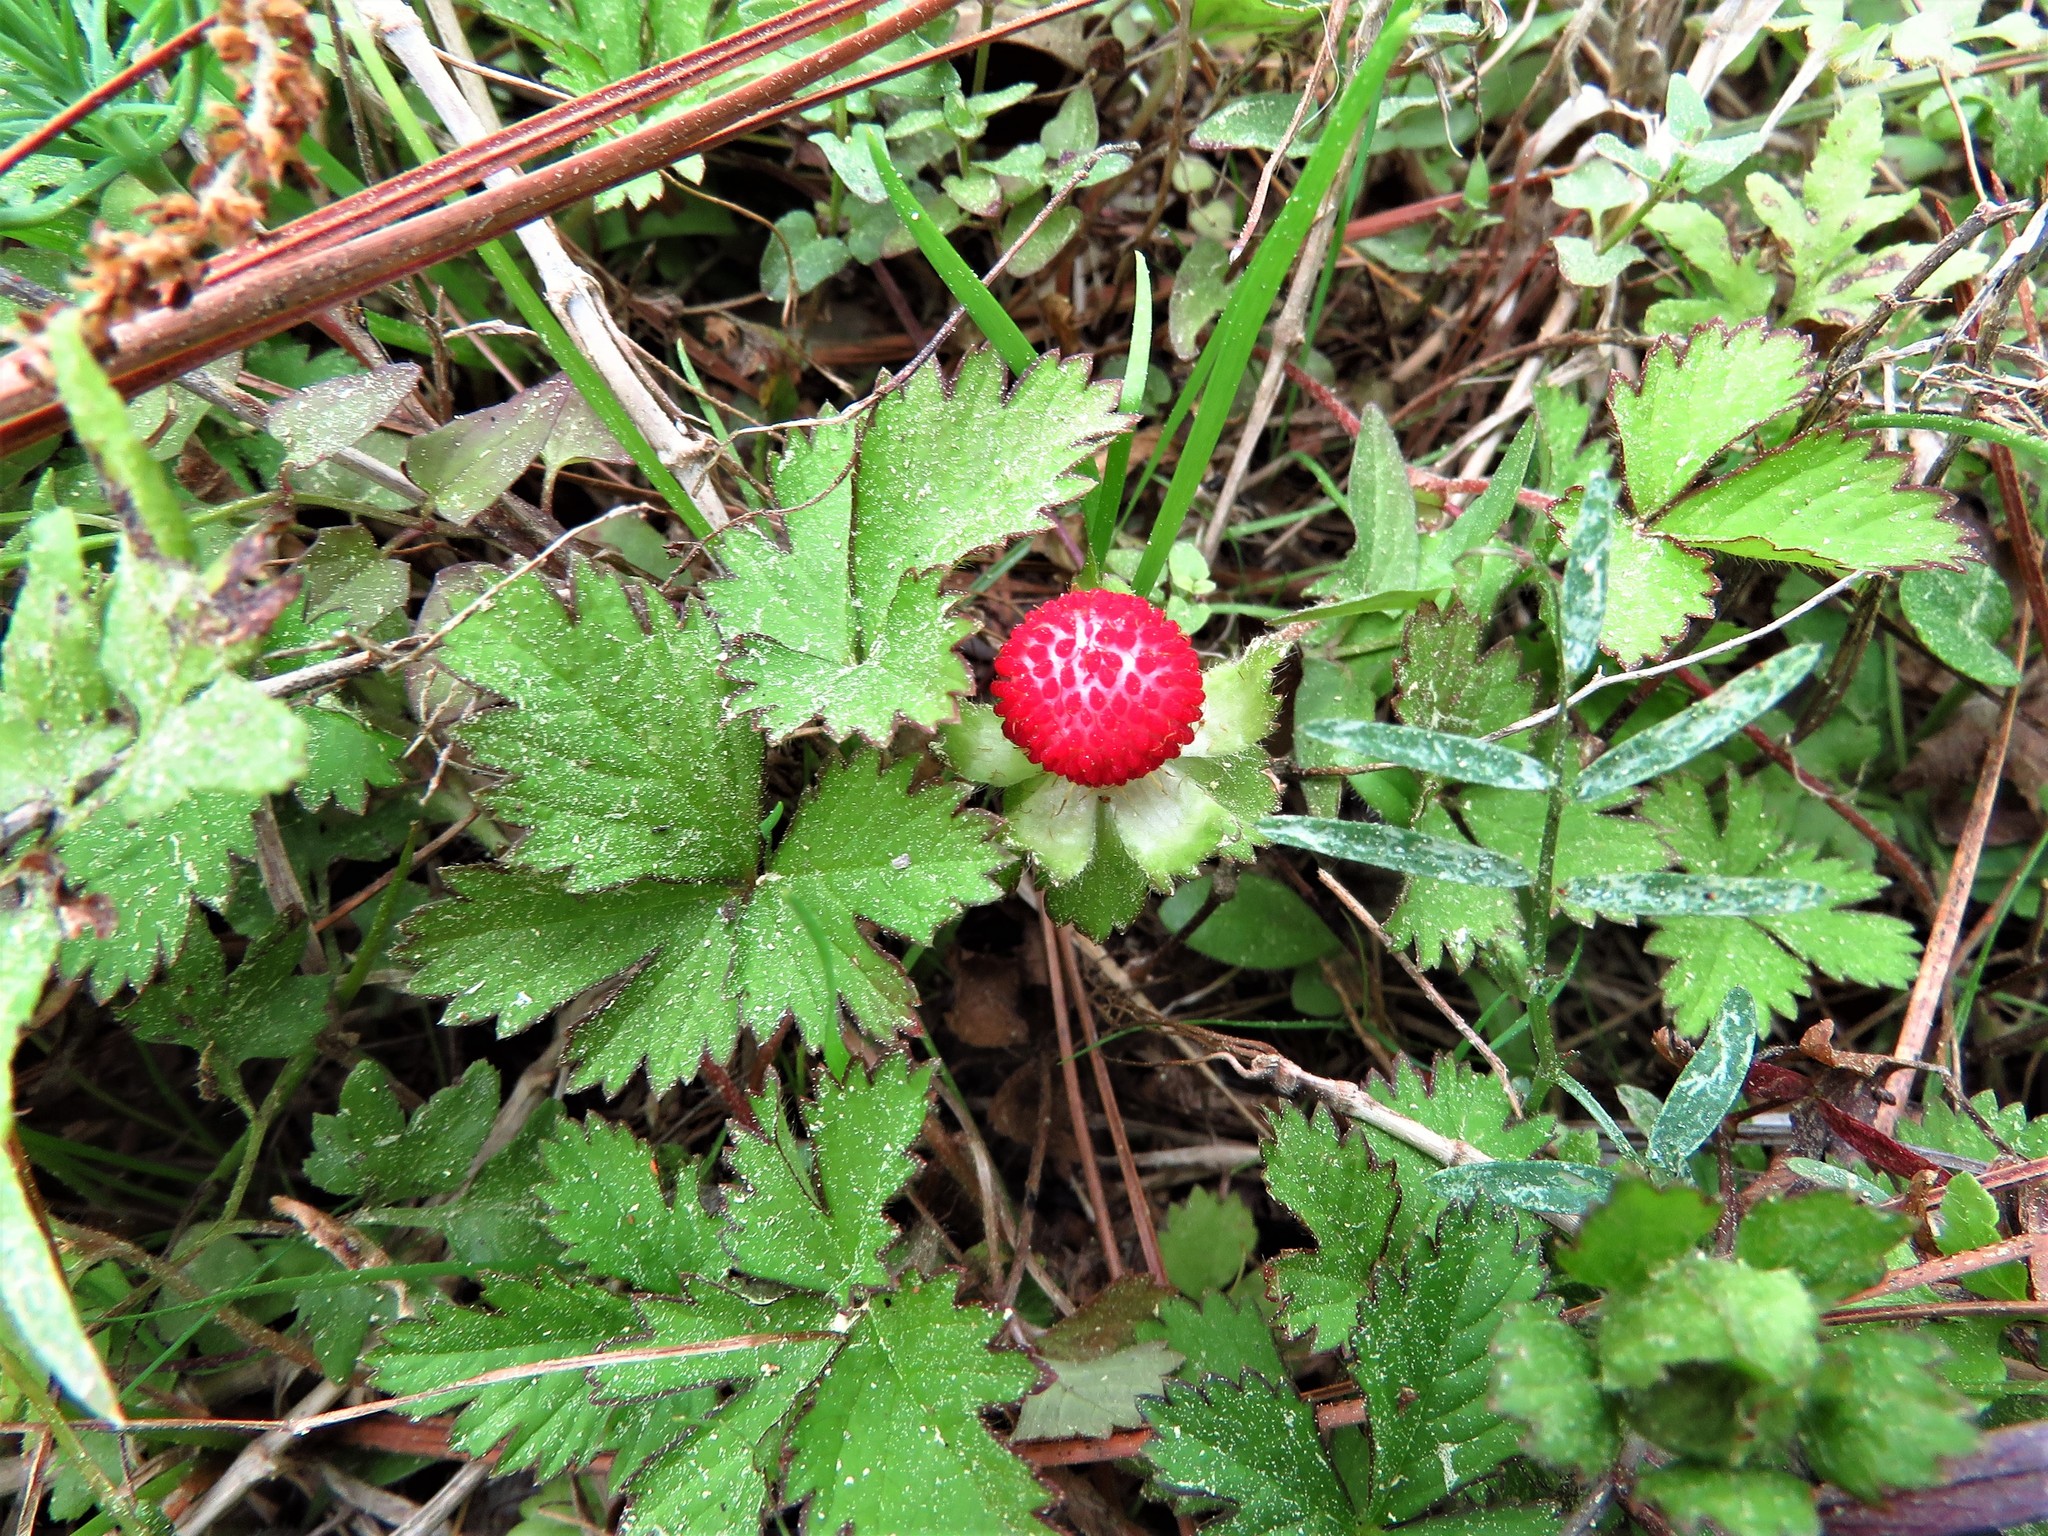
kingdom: Plantae
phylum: Tracheophyta
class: Magnoliopsida
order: Rosales
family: Rosaceae
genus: Potentilla
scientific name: Potentilla indica
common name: Yellow-flowered strawberry
